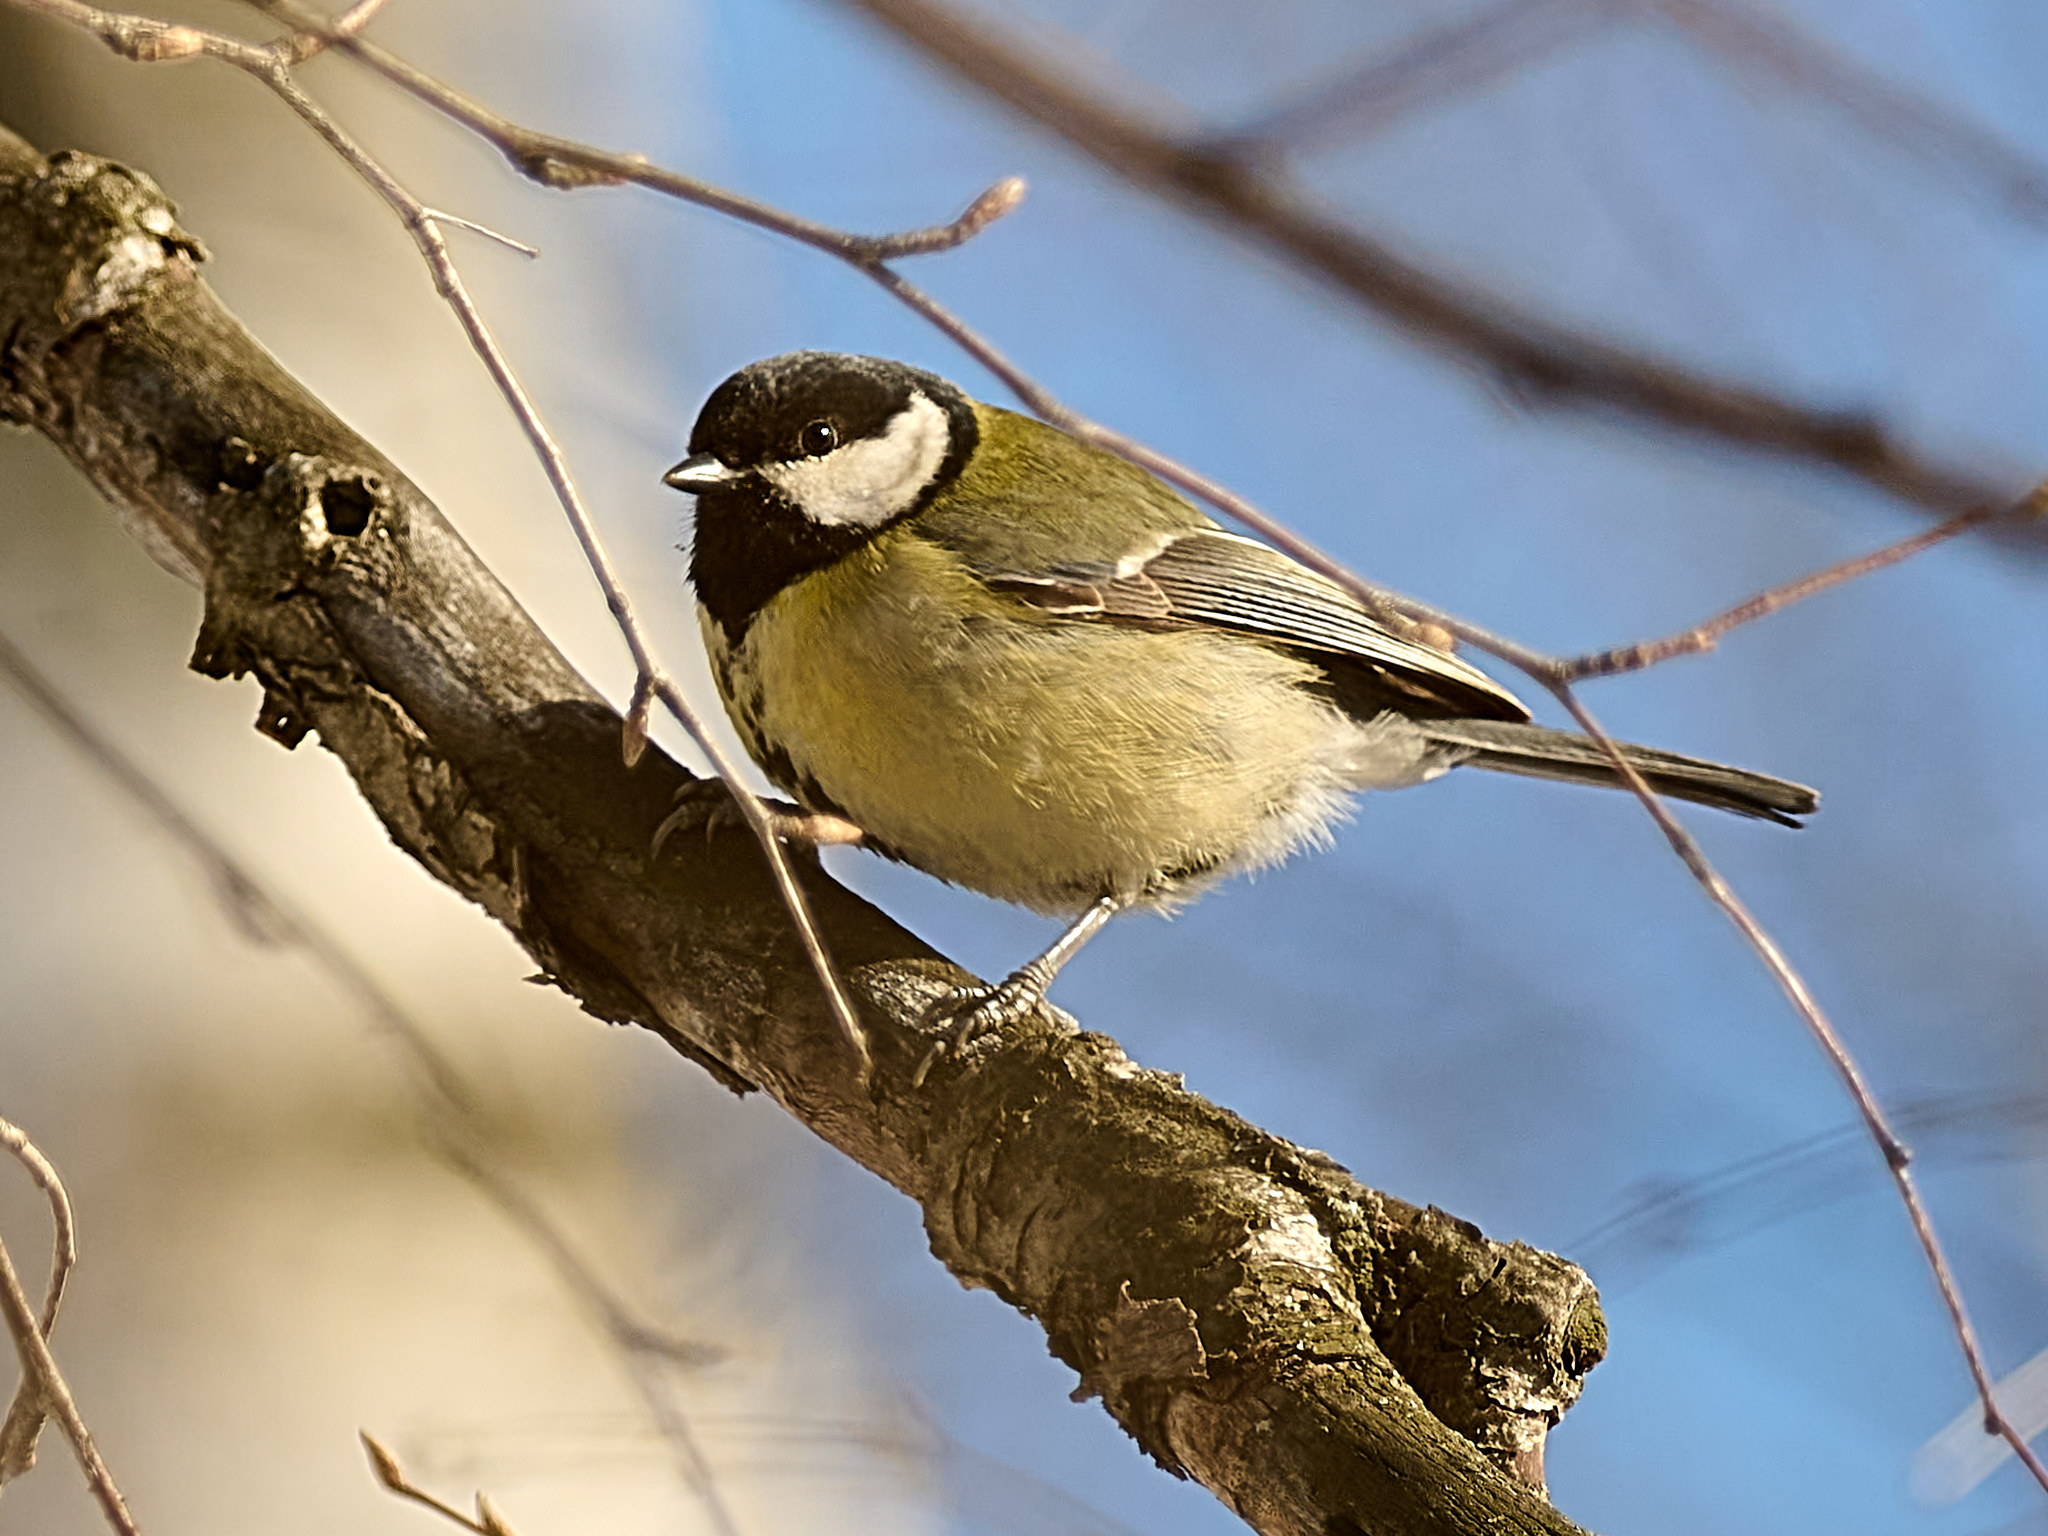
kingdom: Animalia
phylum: Chordata
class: Aves
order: Passeriformes
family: Paridae
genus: Parus
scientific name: Parus major
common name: Great tit
